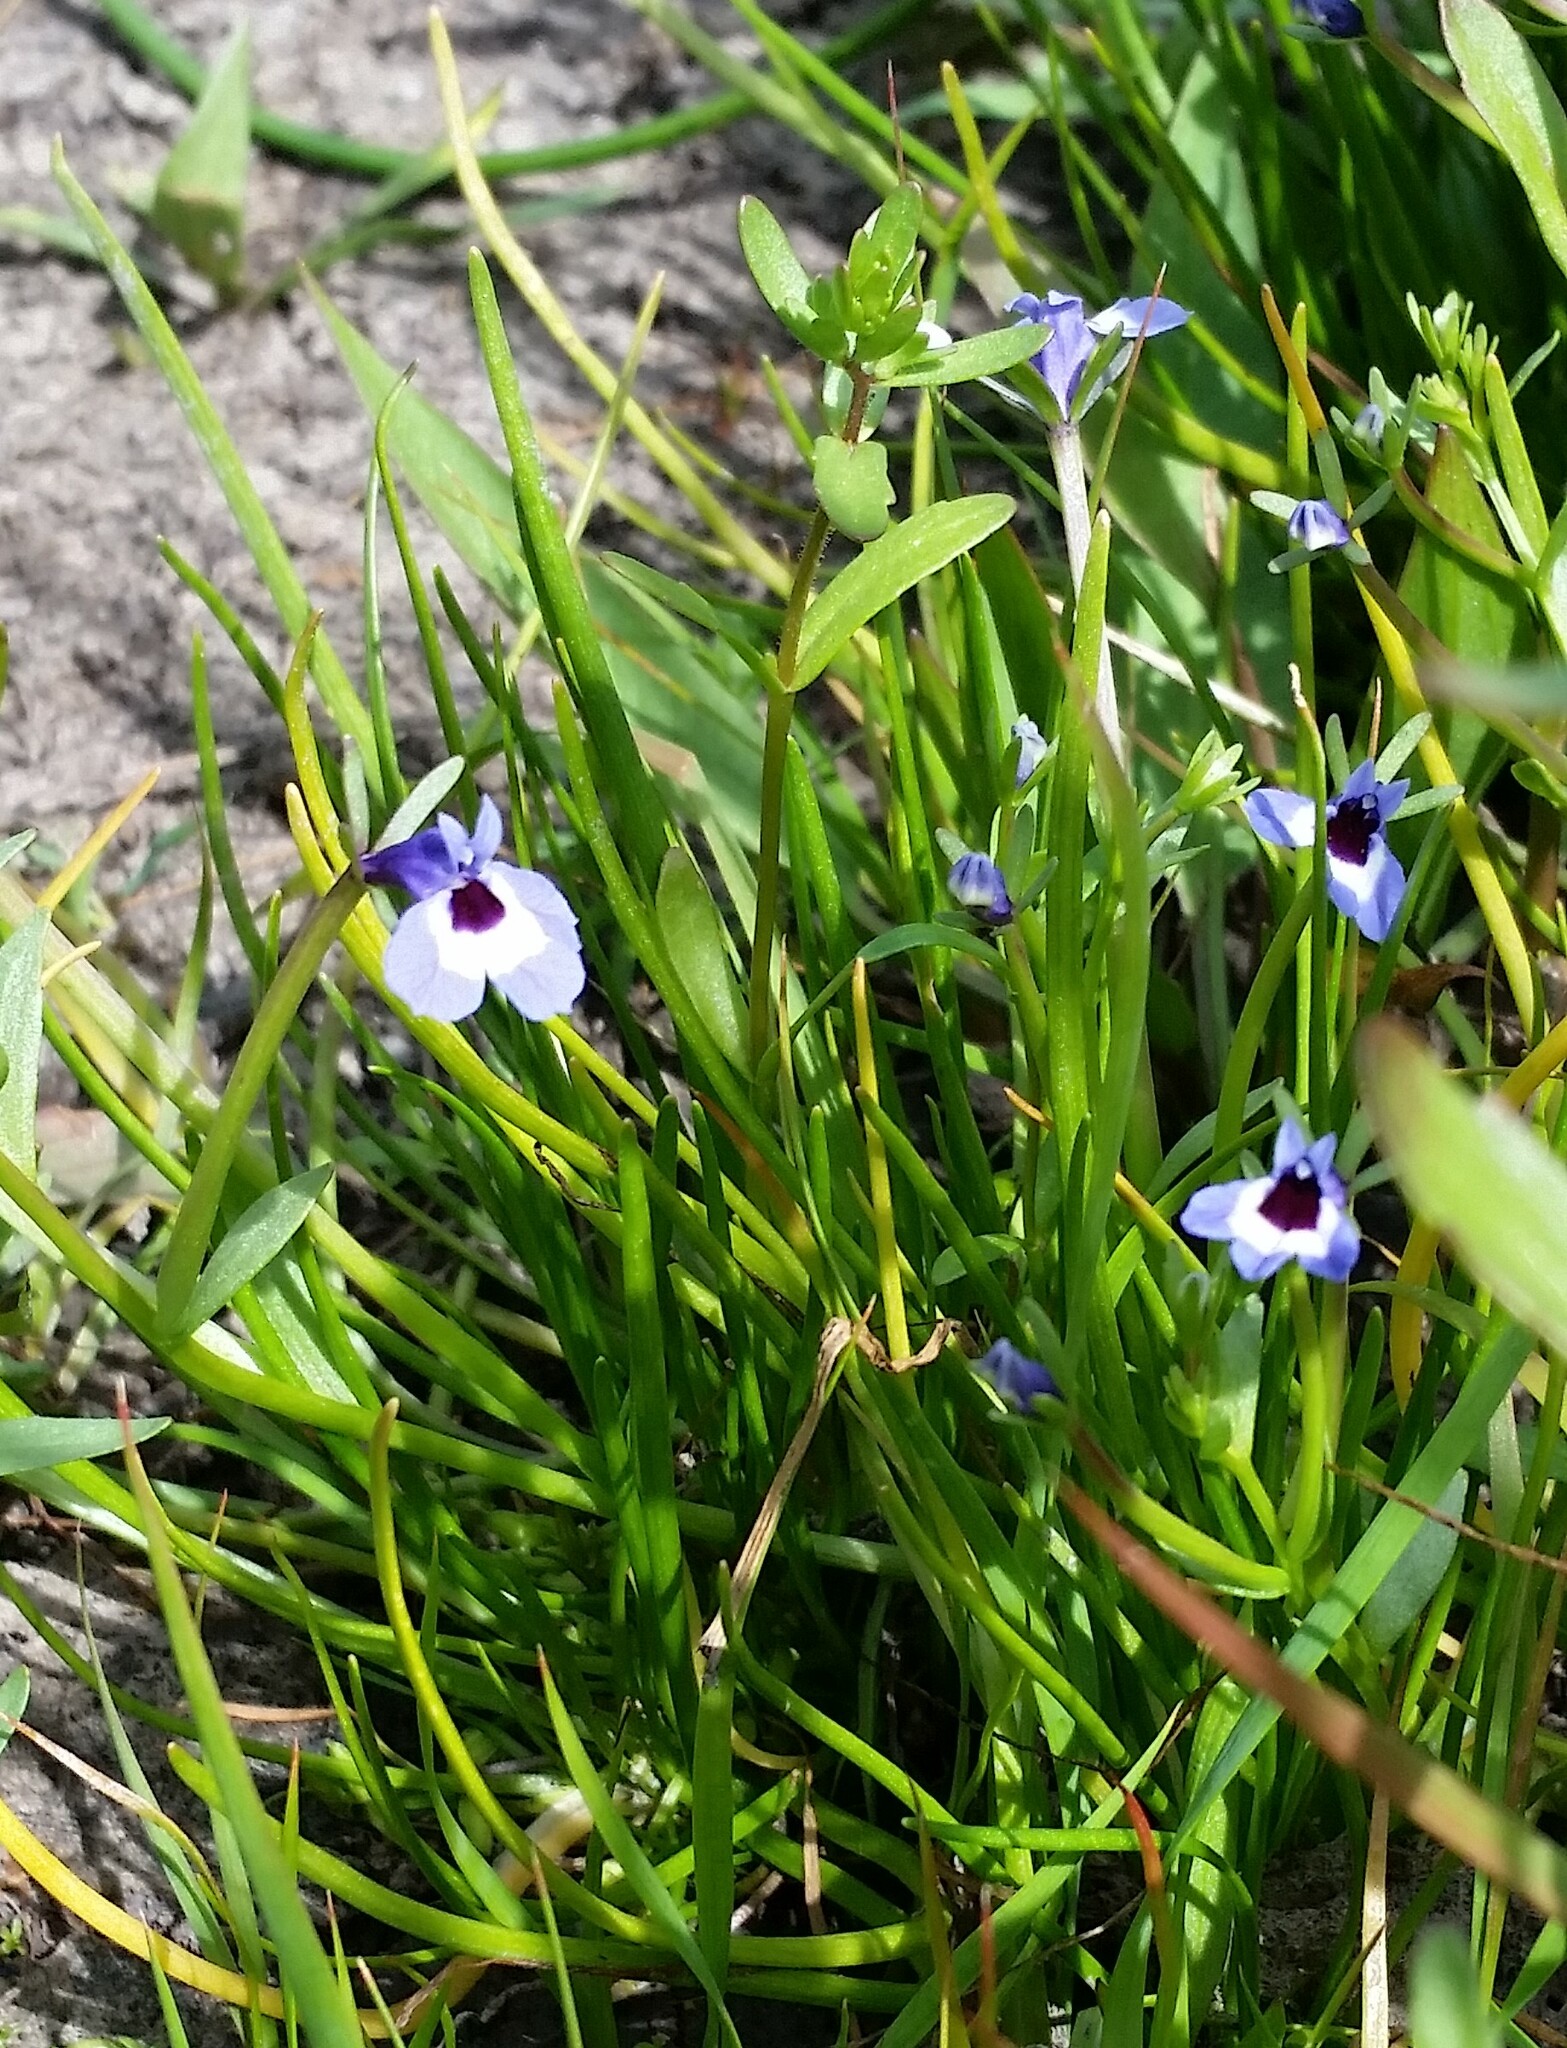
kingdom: Plantae
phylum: Tracheophyta
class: Magnoliopsida
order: Asterales
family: Campanulaceae
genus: Downingia
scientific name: Downingia concolor
